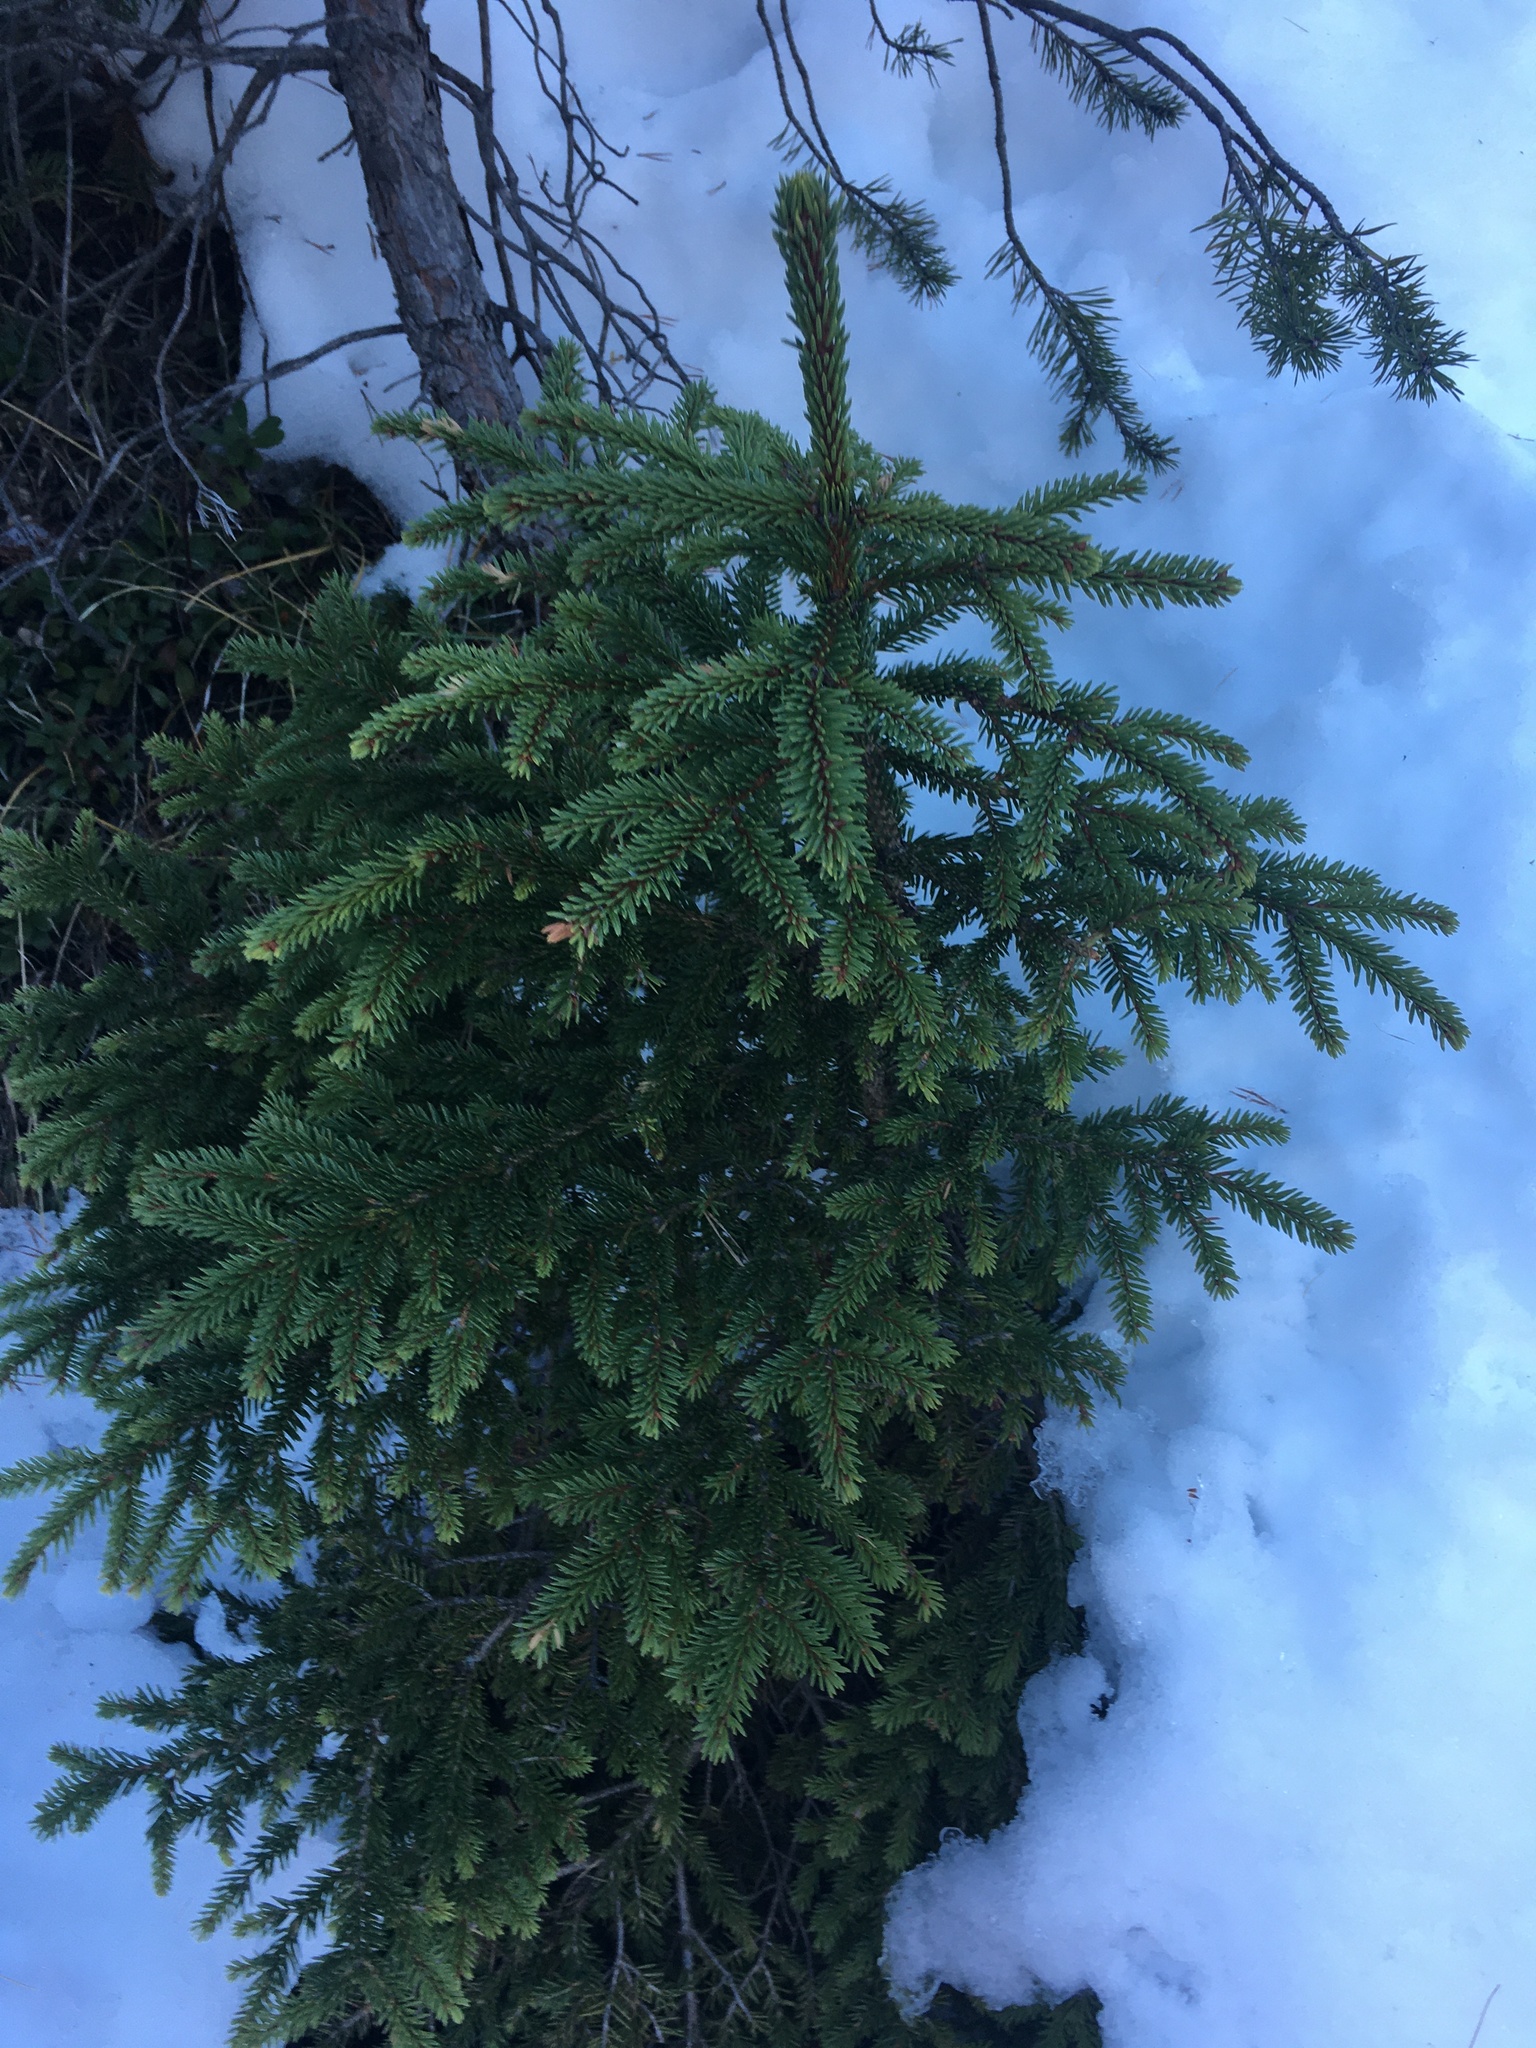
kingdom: Plantae
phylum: Tracheophyta
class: Pinopsida
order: Pinales
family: Pinaceae
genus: Picea
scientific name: Picea abies
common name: Norway spruce
